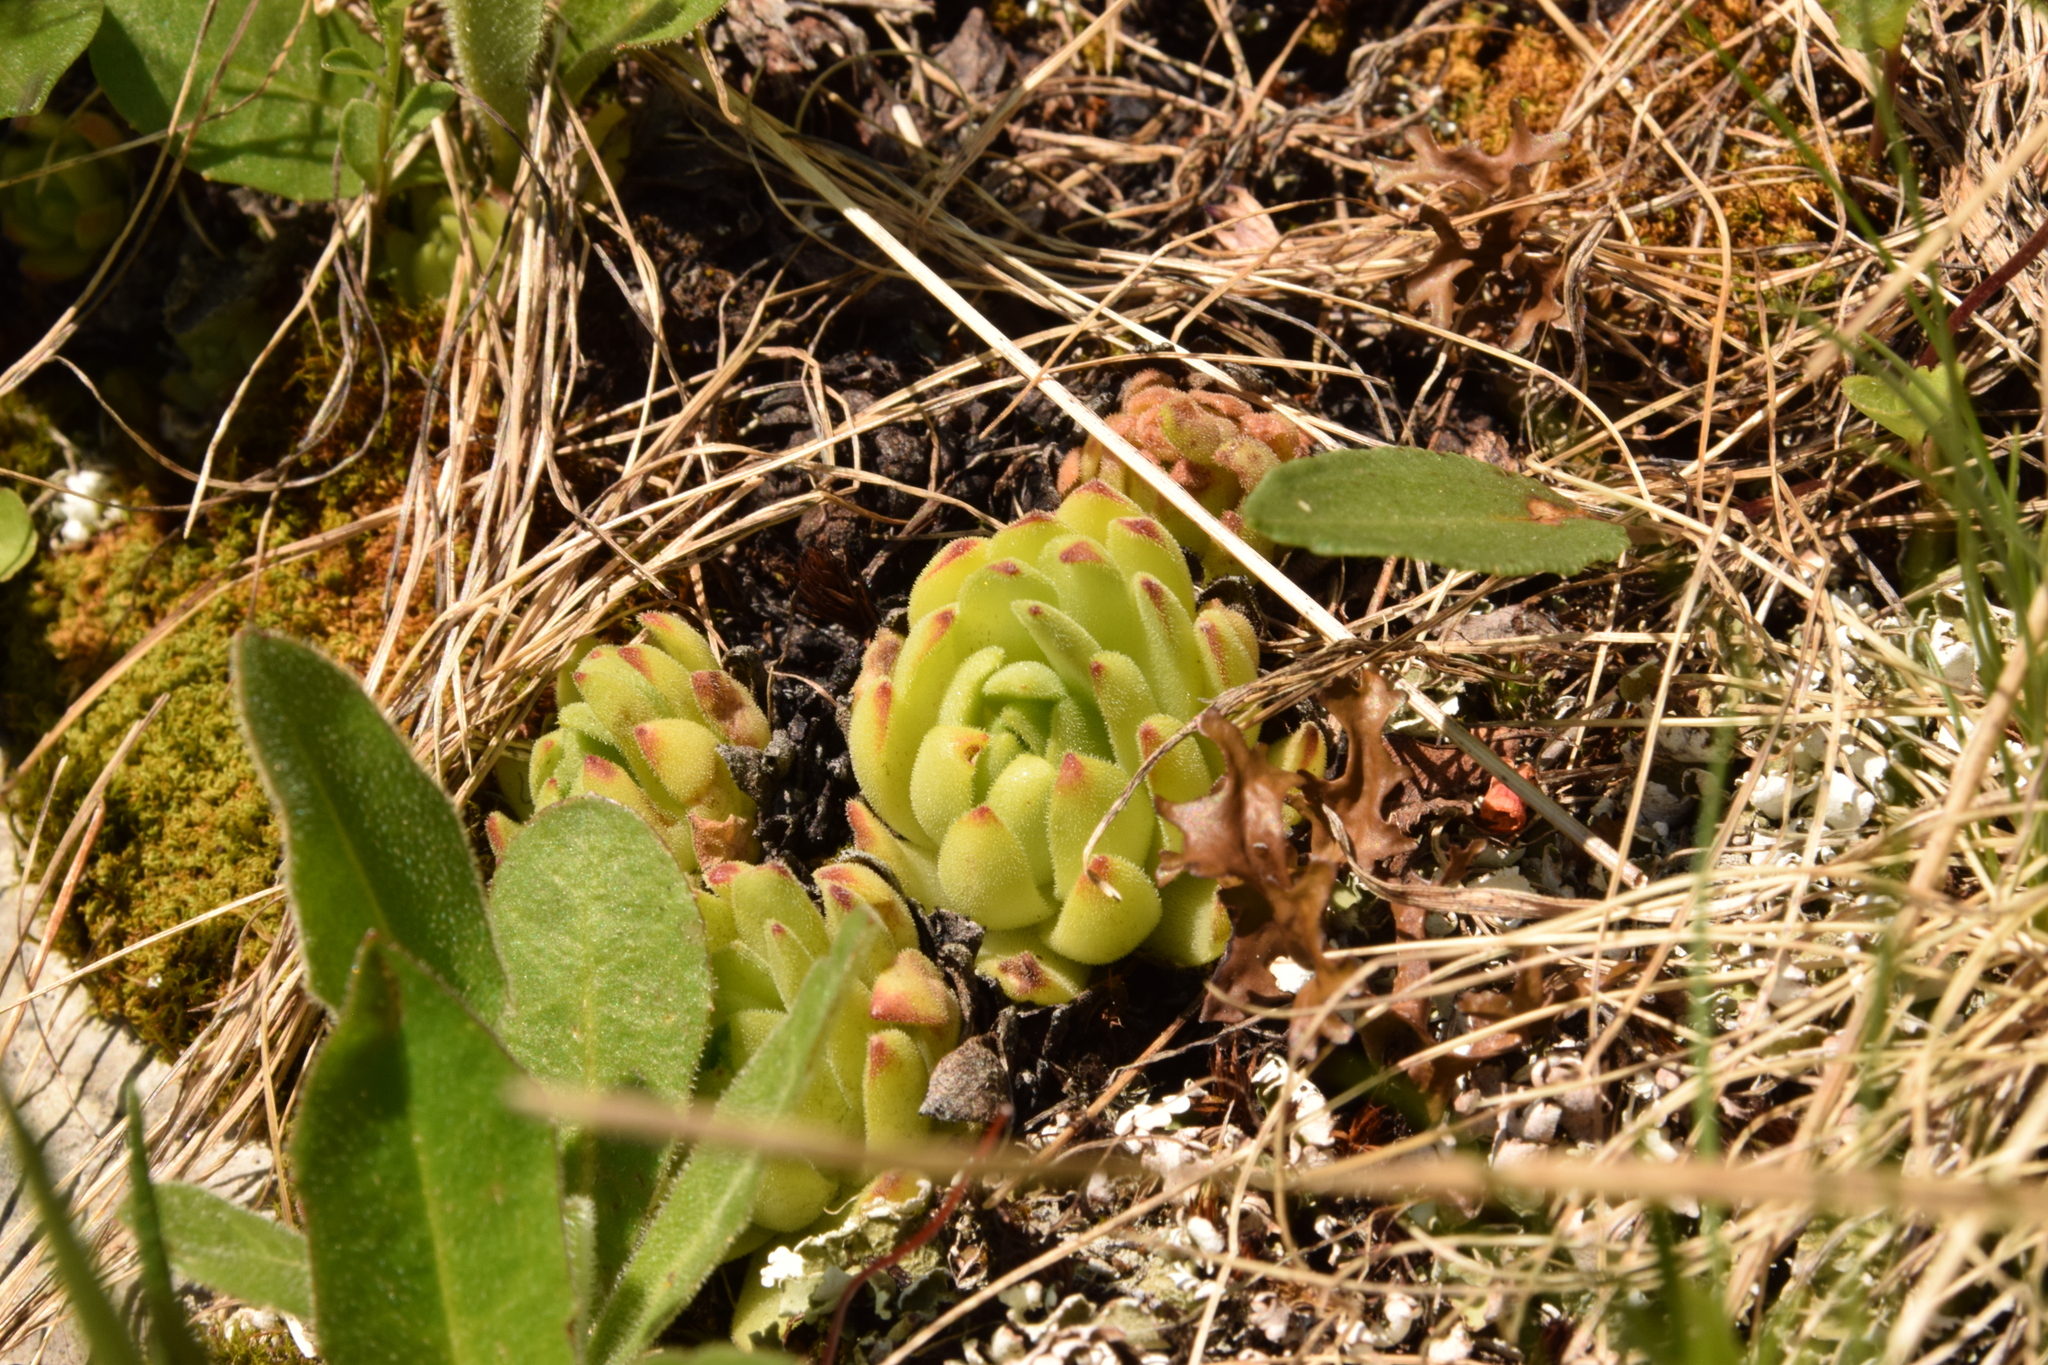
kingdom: Plantae
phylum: Tracheophyta
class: Magnoliopsida
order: Saxifragales
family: Crassulaceae
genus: Sempervivum
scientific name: Sempervivum montanum
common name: Mountain house-leek
